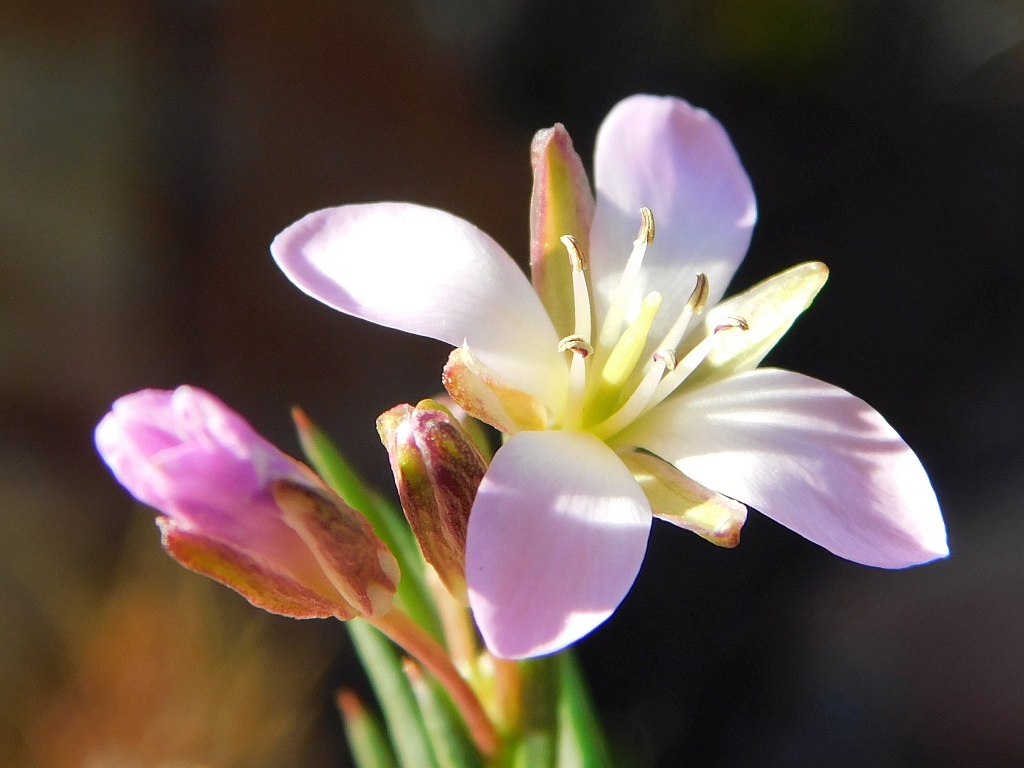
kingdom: Plantae
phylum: Tracheophyta
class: Magnoliopsida
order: Brassicales
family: Brassicaceae
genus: Heliophila
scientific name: Heliophila scoparia
